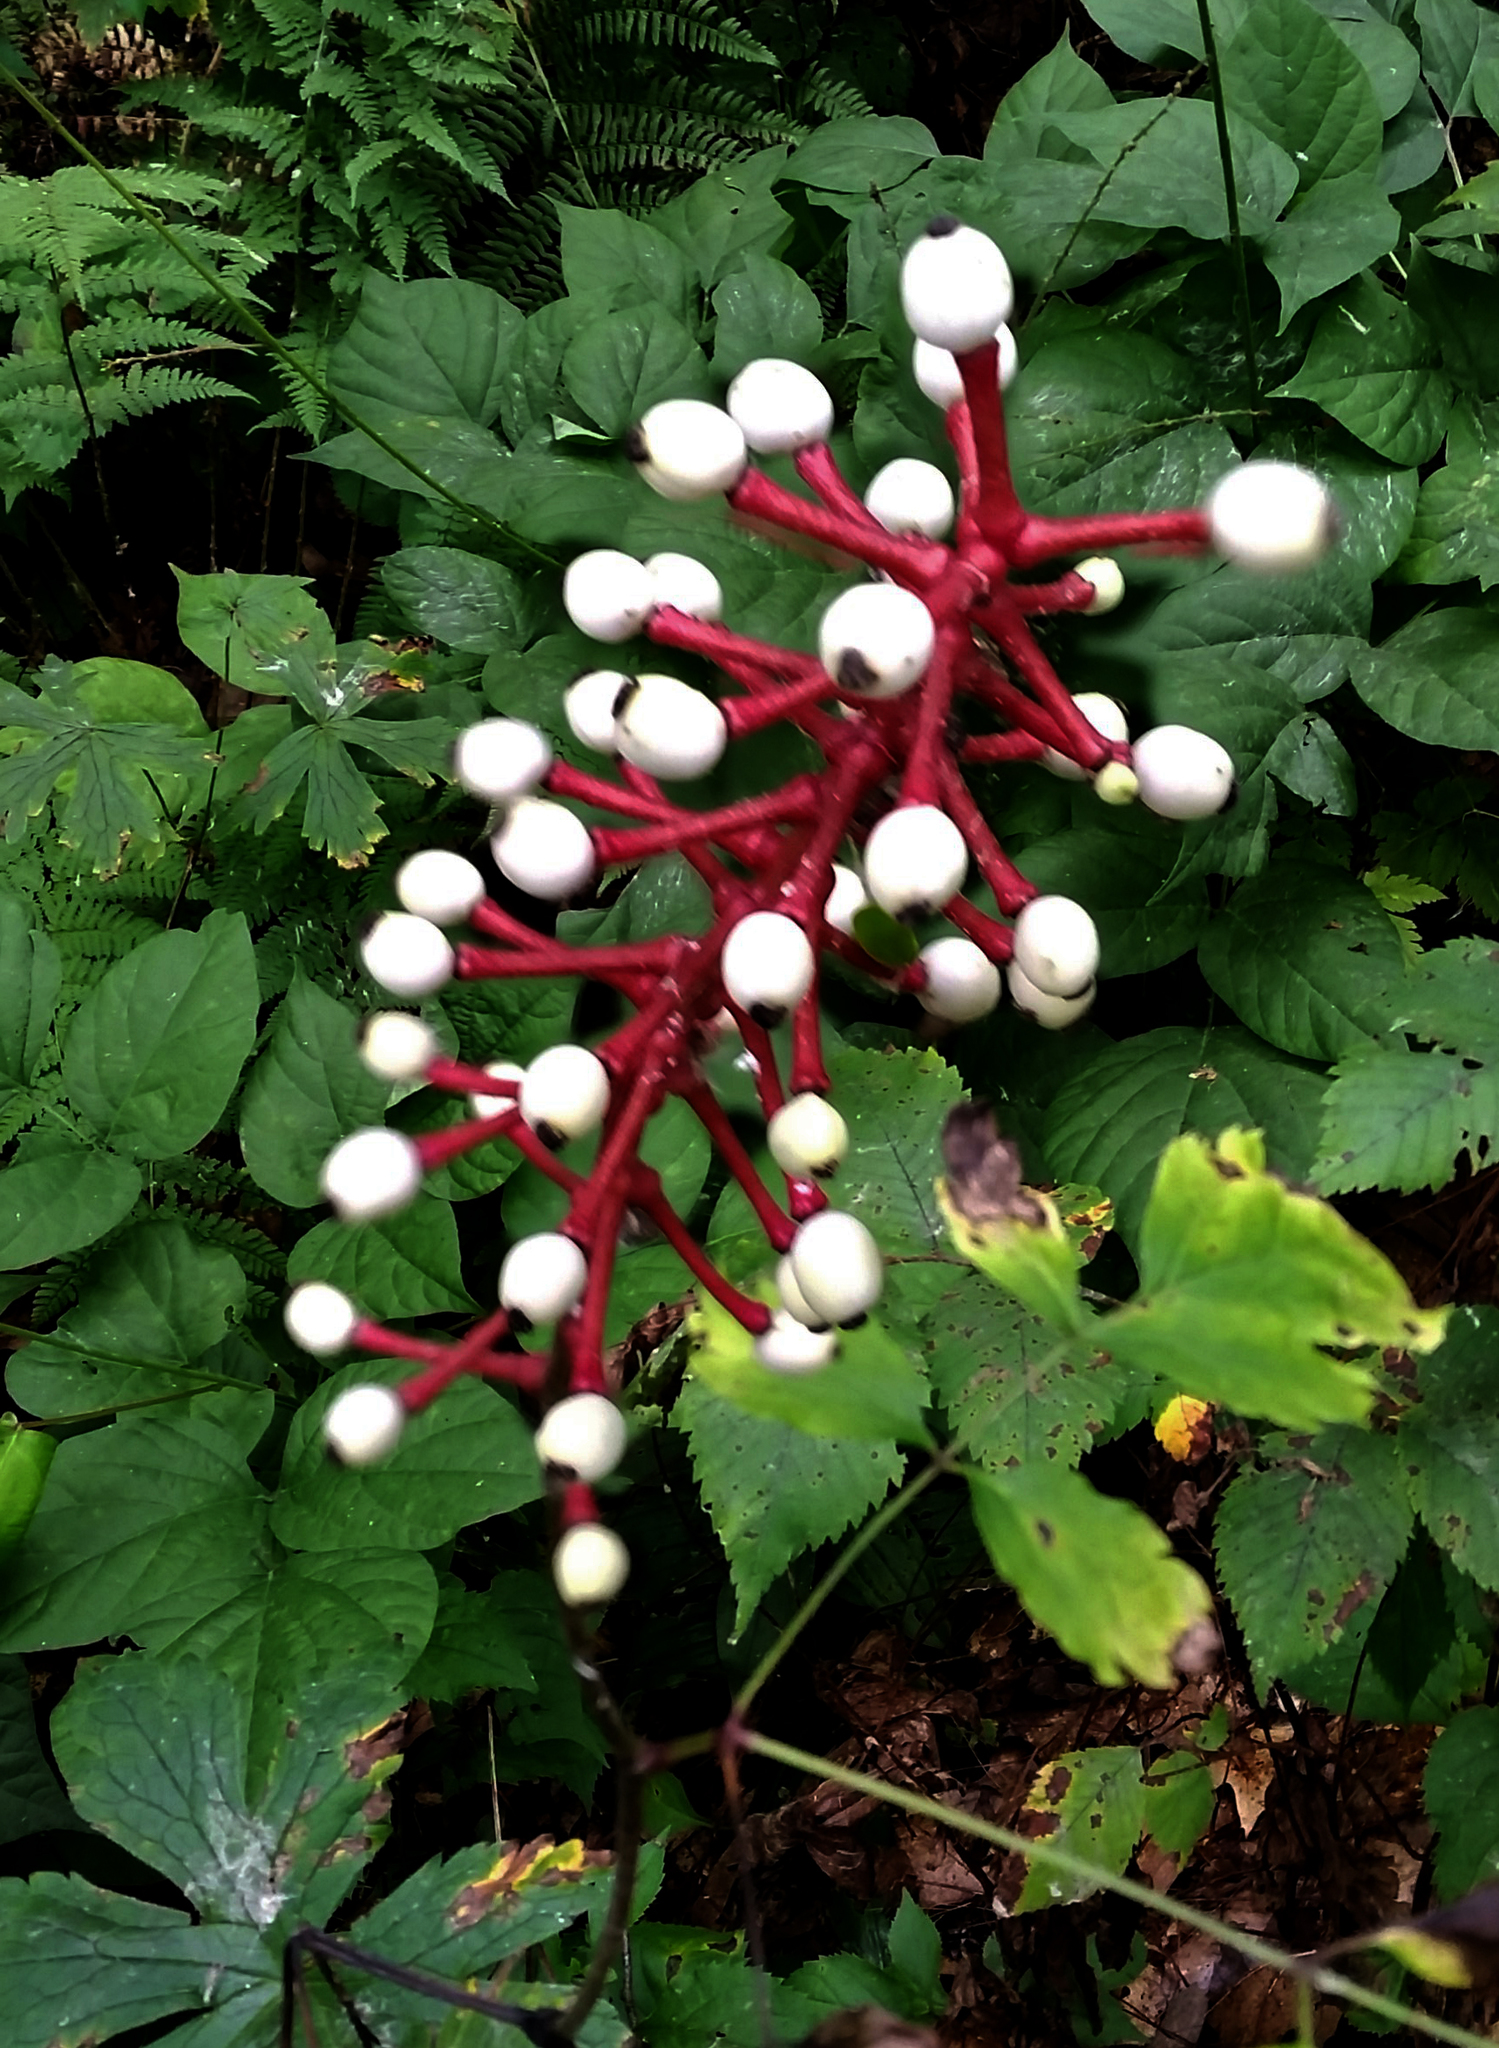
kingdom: Plantae
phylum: Tracheophyta
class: Magnoliopsida
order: Ranunculales
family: Ranunculaceae
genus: Actaea
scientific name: Actaea pachypoda
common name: Doll's-eyes
